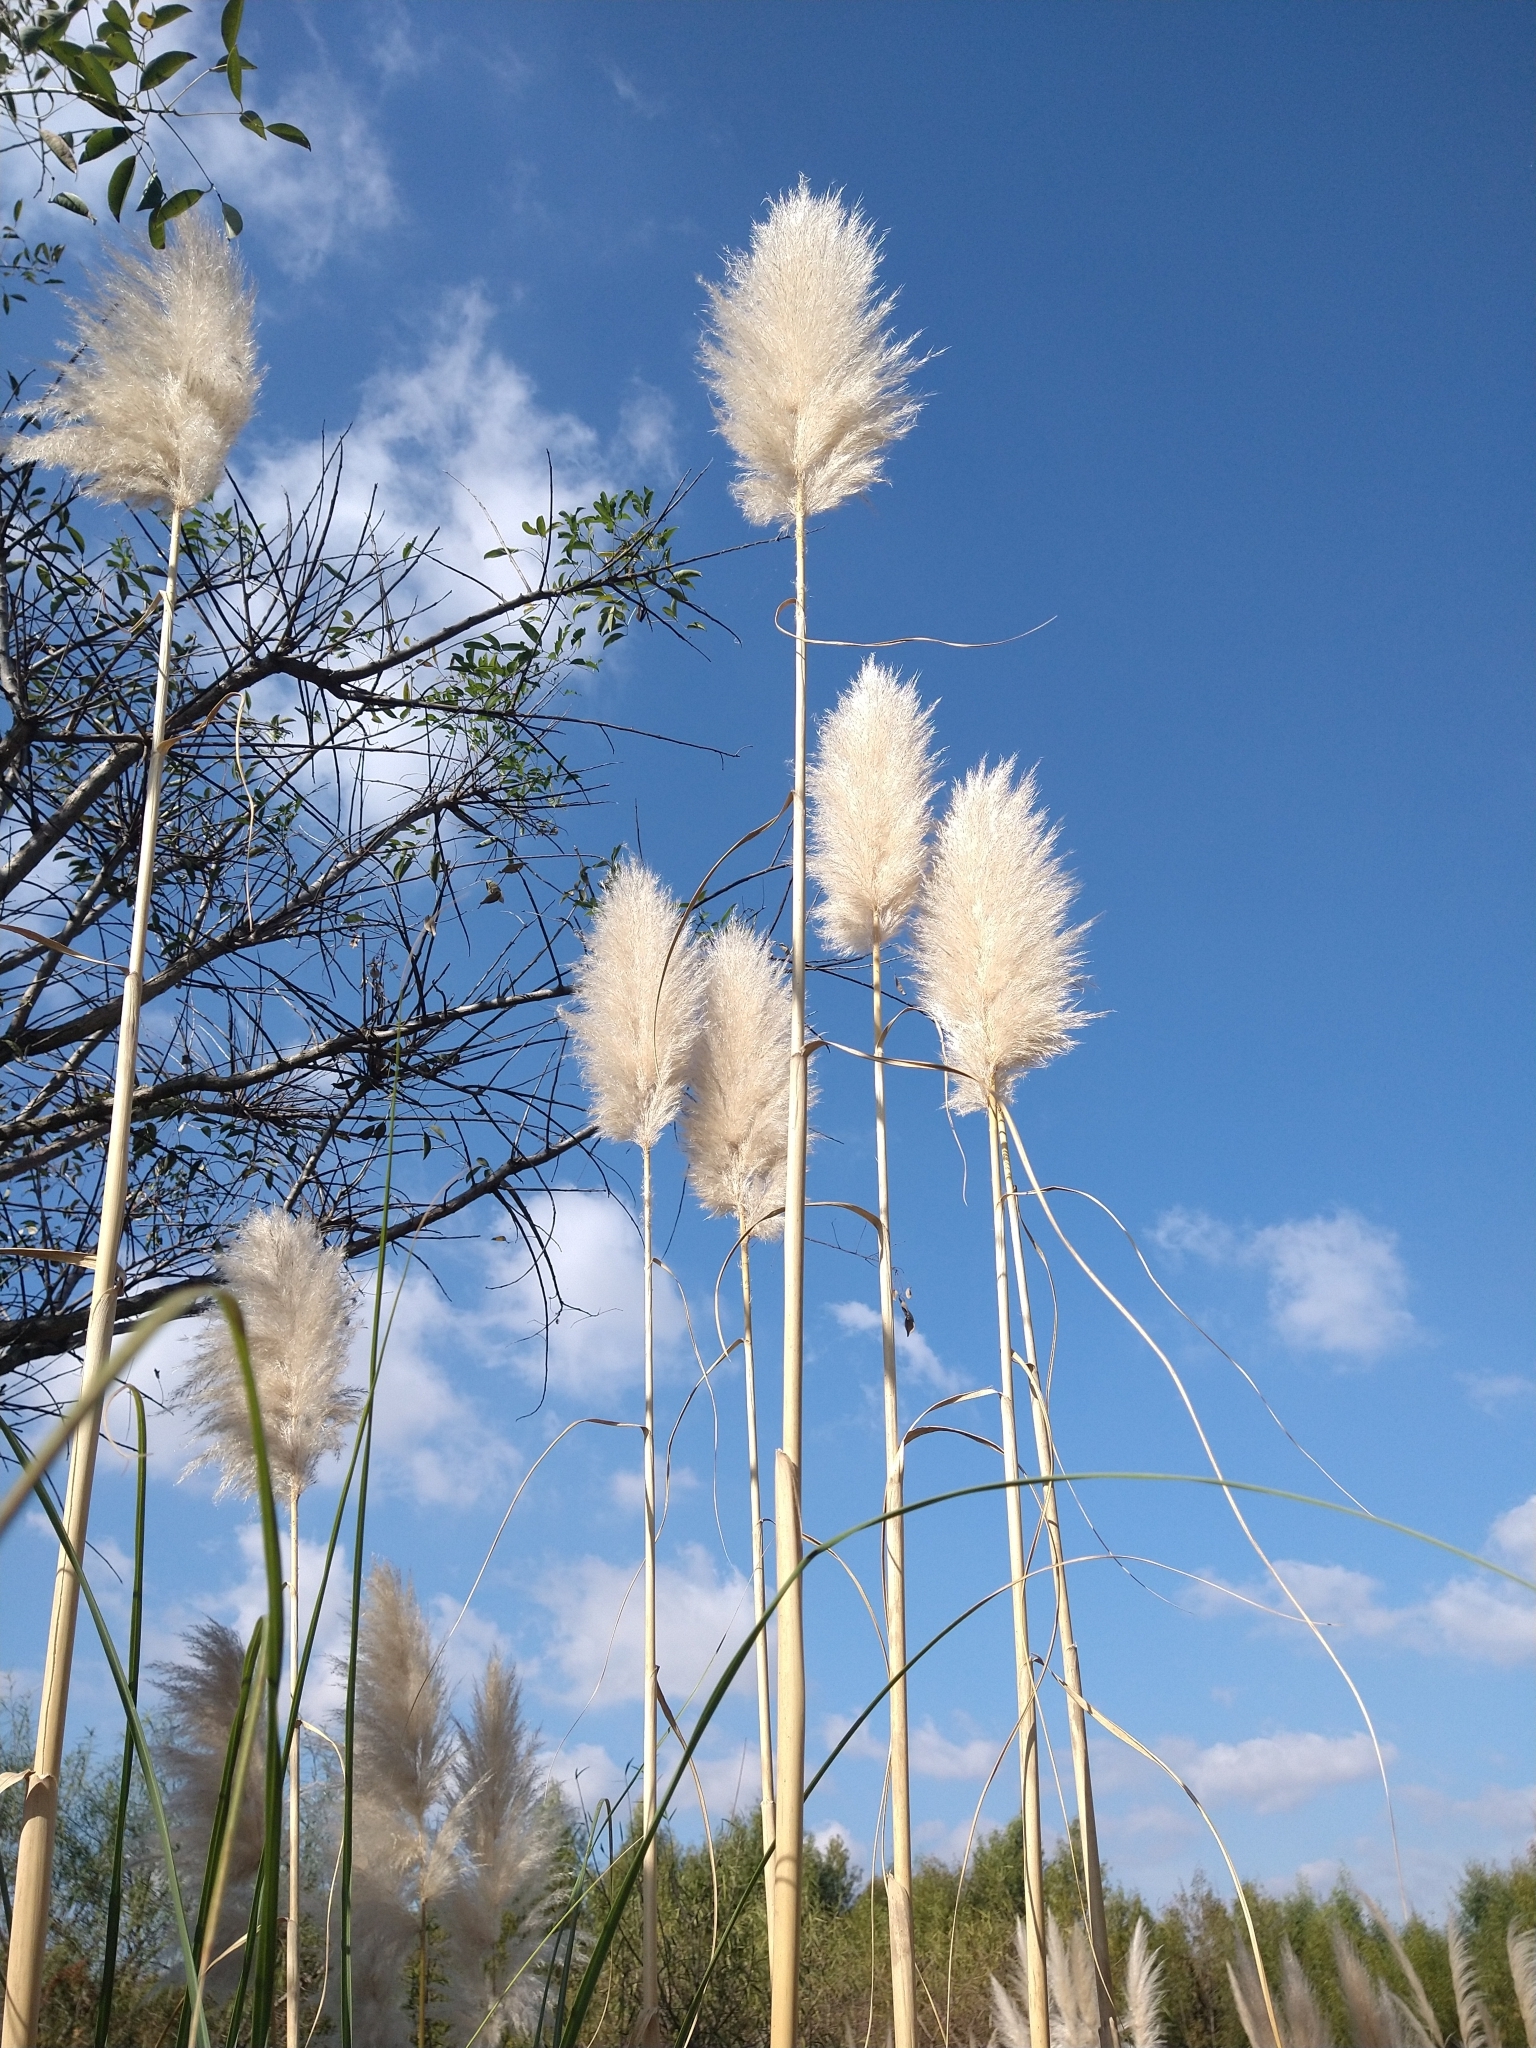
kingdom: Plantae
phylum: Tracheophyta
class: Liliopsida
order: Poales
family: Poaceae
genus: Cortaderia
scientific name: Cortaderia selloana
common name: Uruguayan pampas grass
